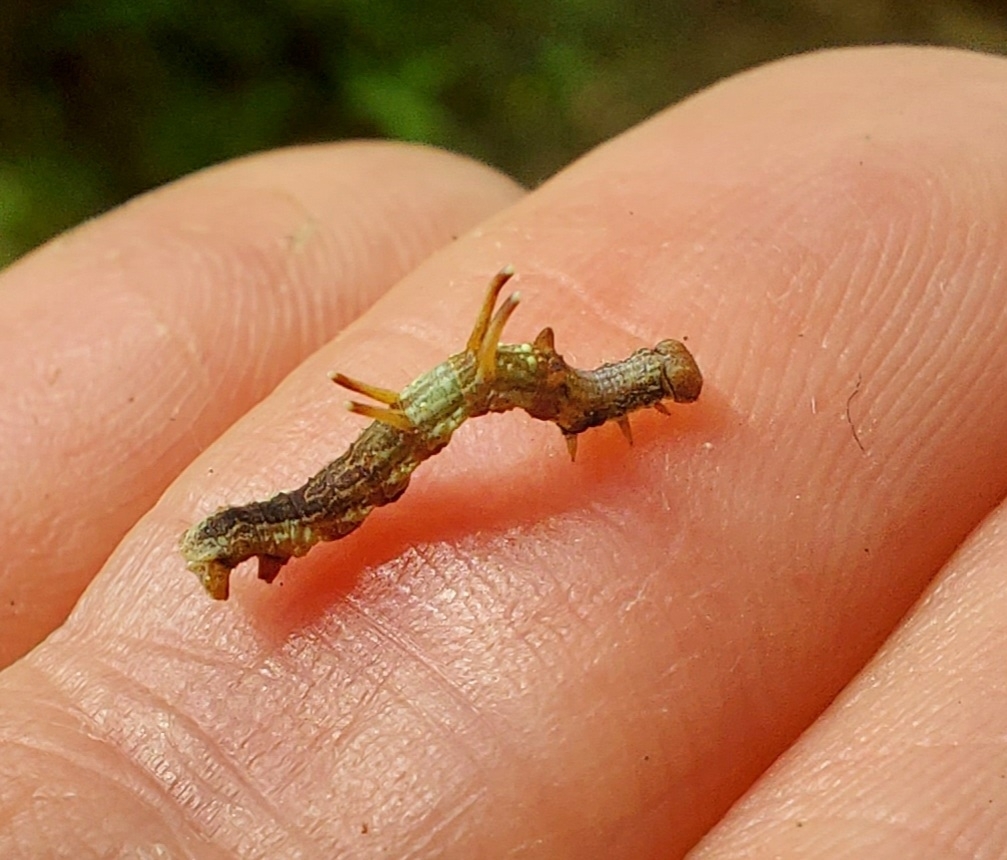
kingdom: Animalia
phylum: Arthropoda
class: Insecta
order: Lepidoptera
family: Geometridae
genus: Nematocampa
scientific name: Nematocampa resistaria
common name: Horned spanworm moth
